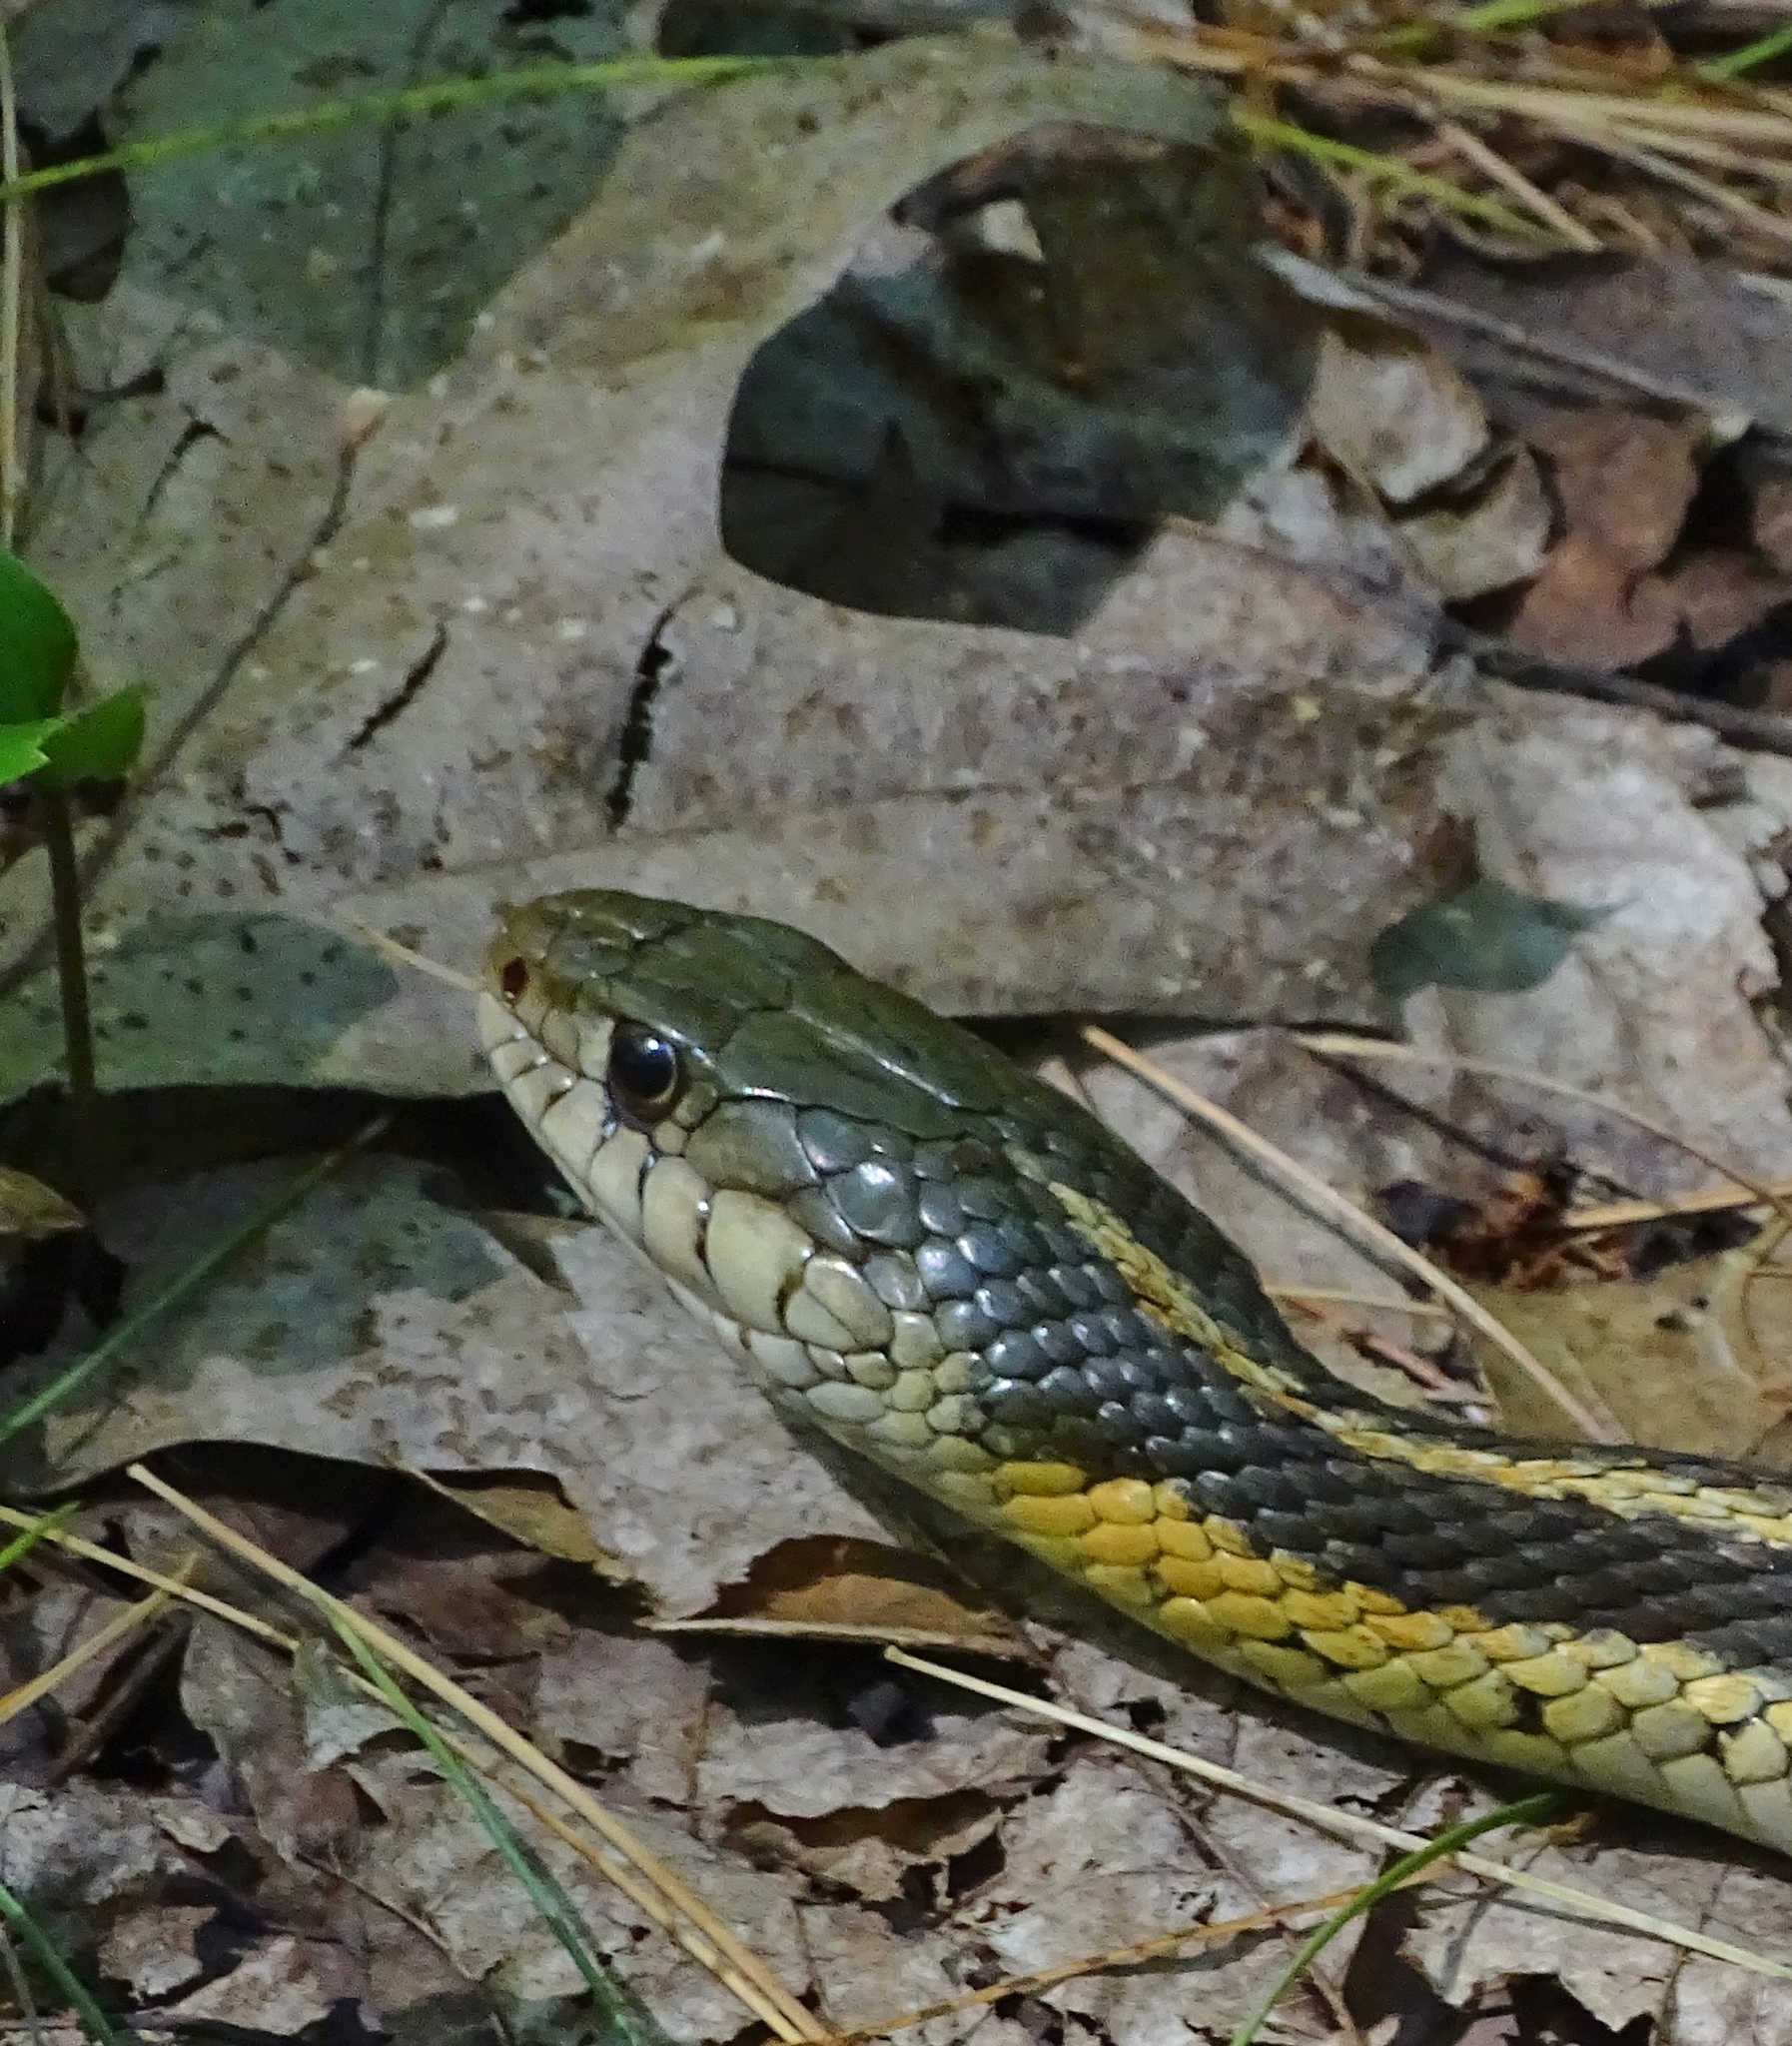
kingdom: Animalia
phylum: Chordata
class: Squamata
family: Colubridae
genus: Thamnophis
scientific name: Thamnophis sirtalis
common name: Common garter snake
